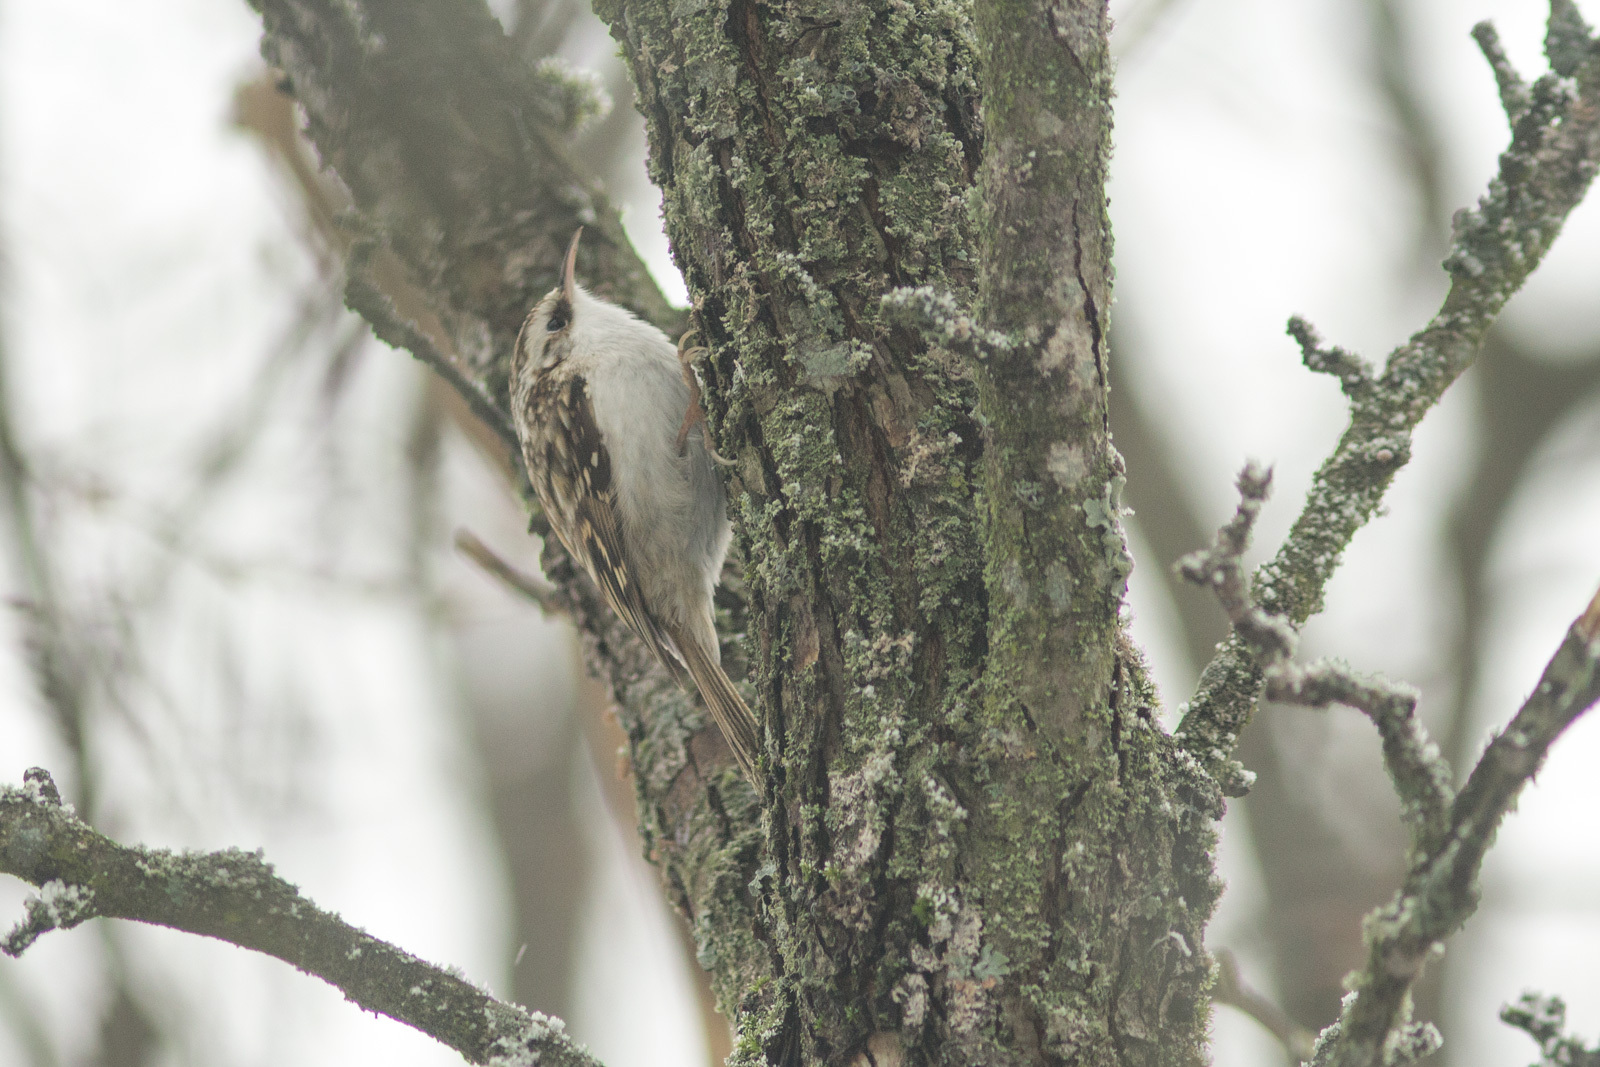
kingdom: Animalia
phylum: Chordata
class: Aves
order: Passeriformes
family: Certhiidae
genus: Certhia
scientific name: Certhia familiaris
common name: Eurasian treecreeper
